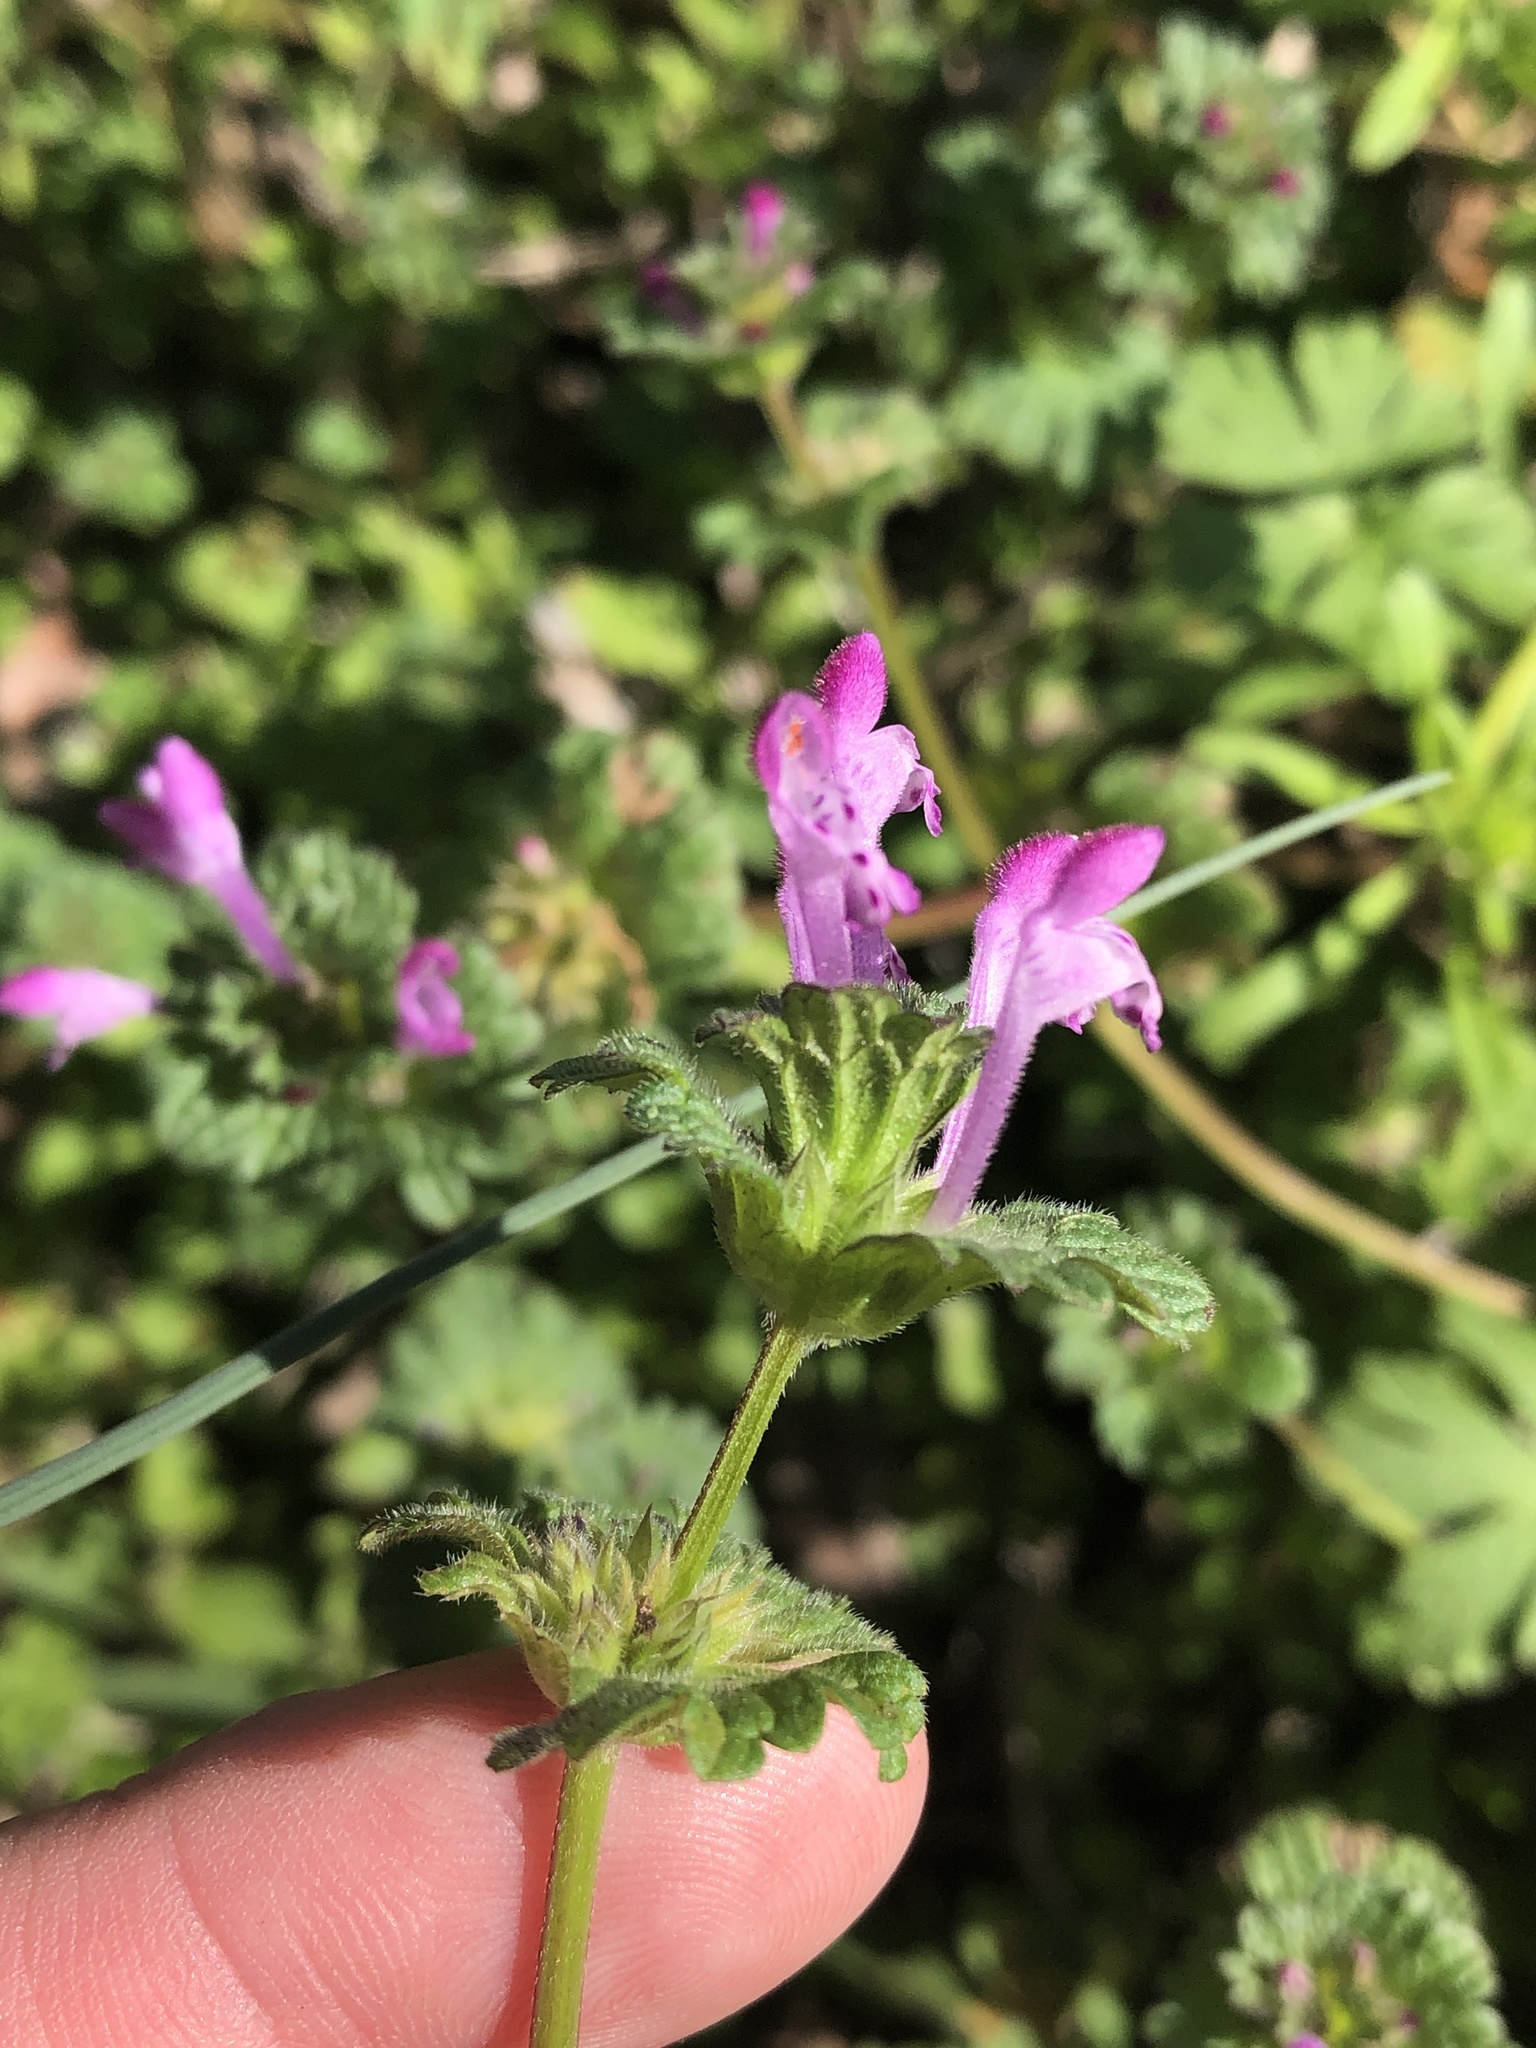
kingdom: Plantae
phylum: Tracheophyta
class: Magnoliopsida
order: Lamiales
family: Lamiaceae
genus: Lamium
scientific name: Lamium amplexicaule
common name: Henbit dead-nettle
